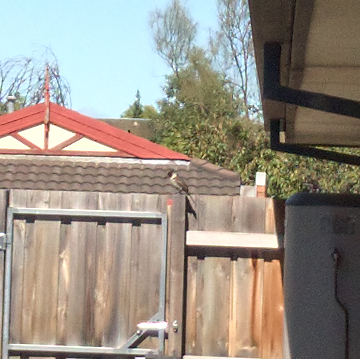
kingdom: Animalia
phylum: Chordata
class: Aves
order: Passeriformes
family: Cracticidae
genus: Cracticus
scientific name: Cracticus torquatus
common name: Grey butcherbird
